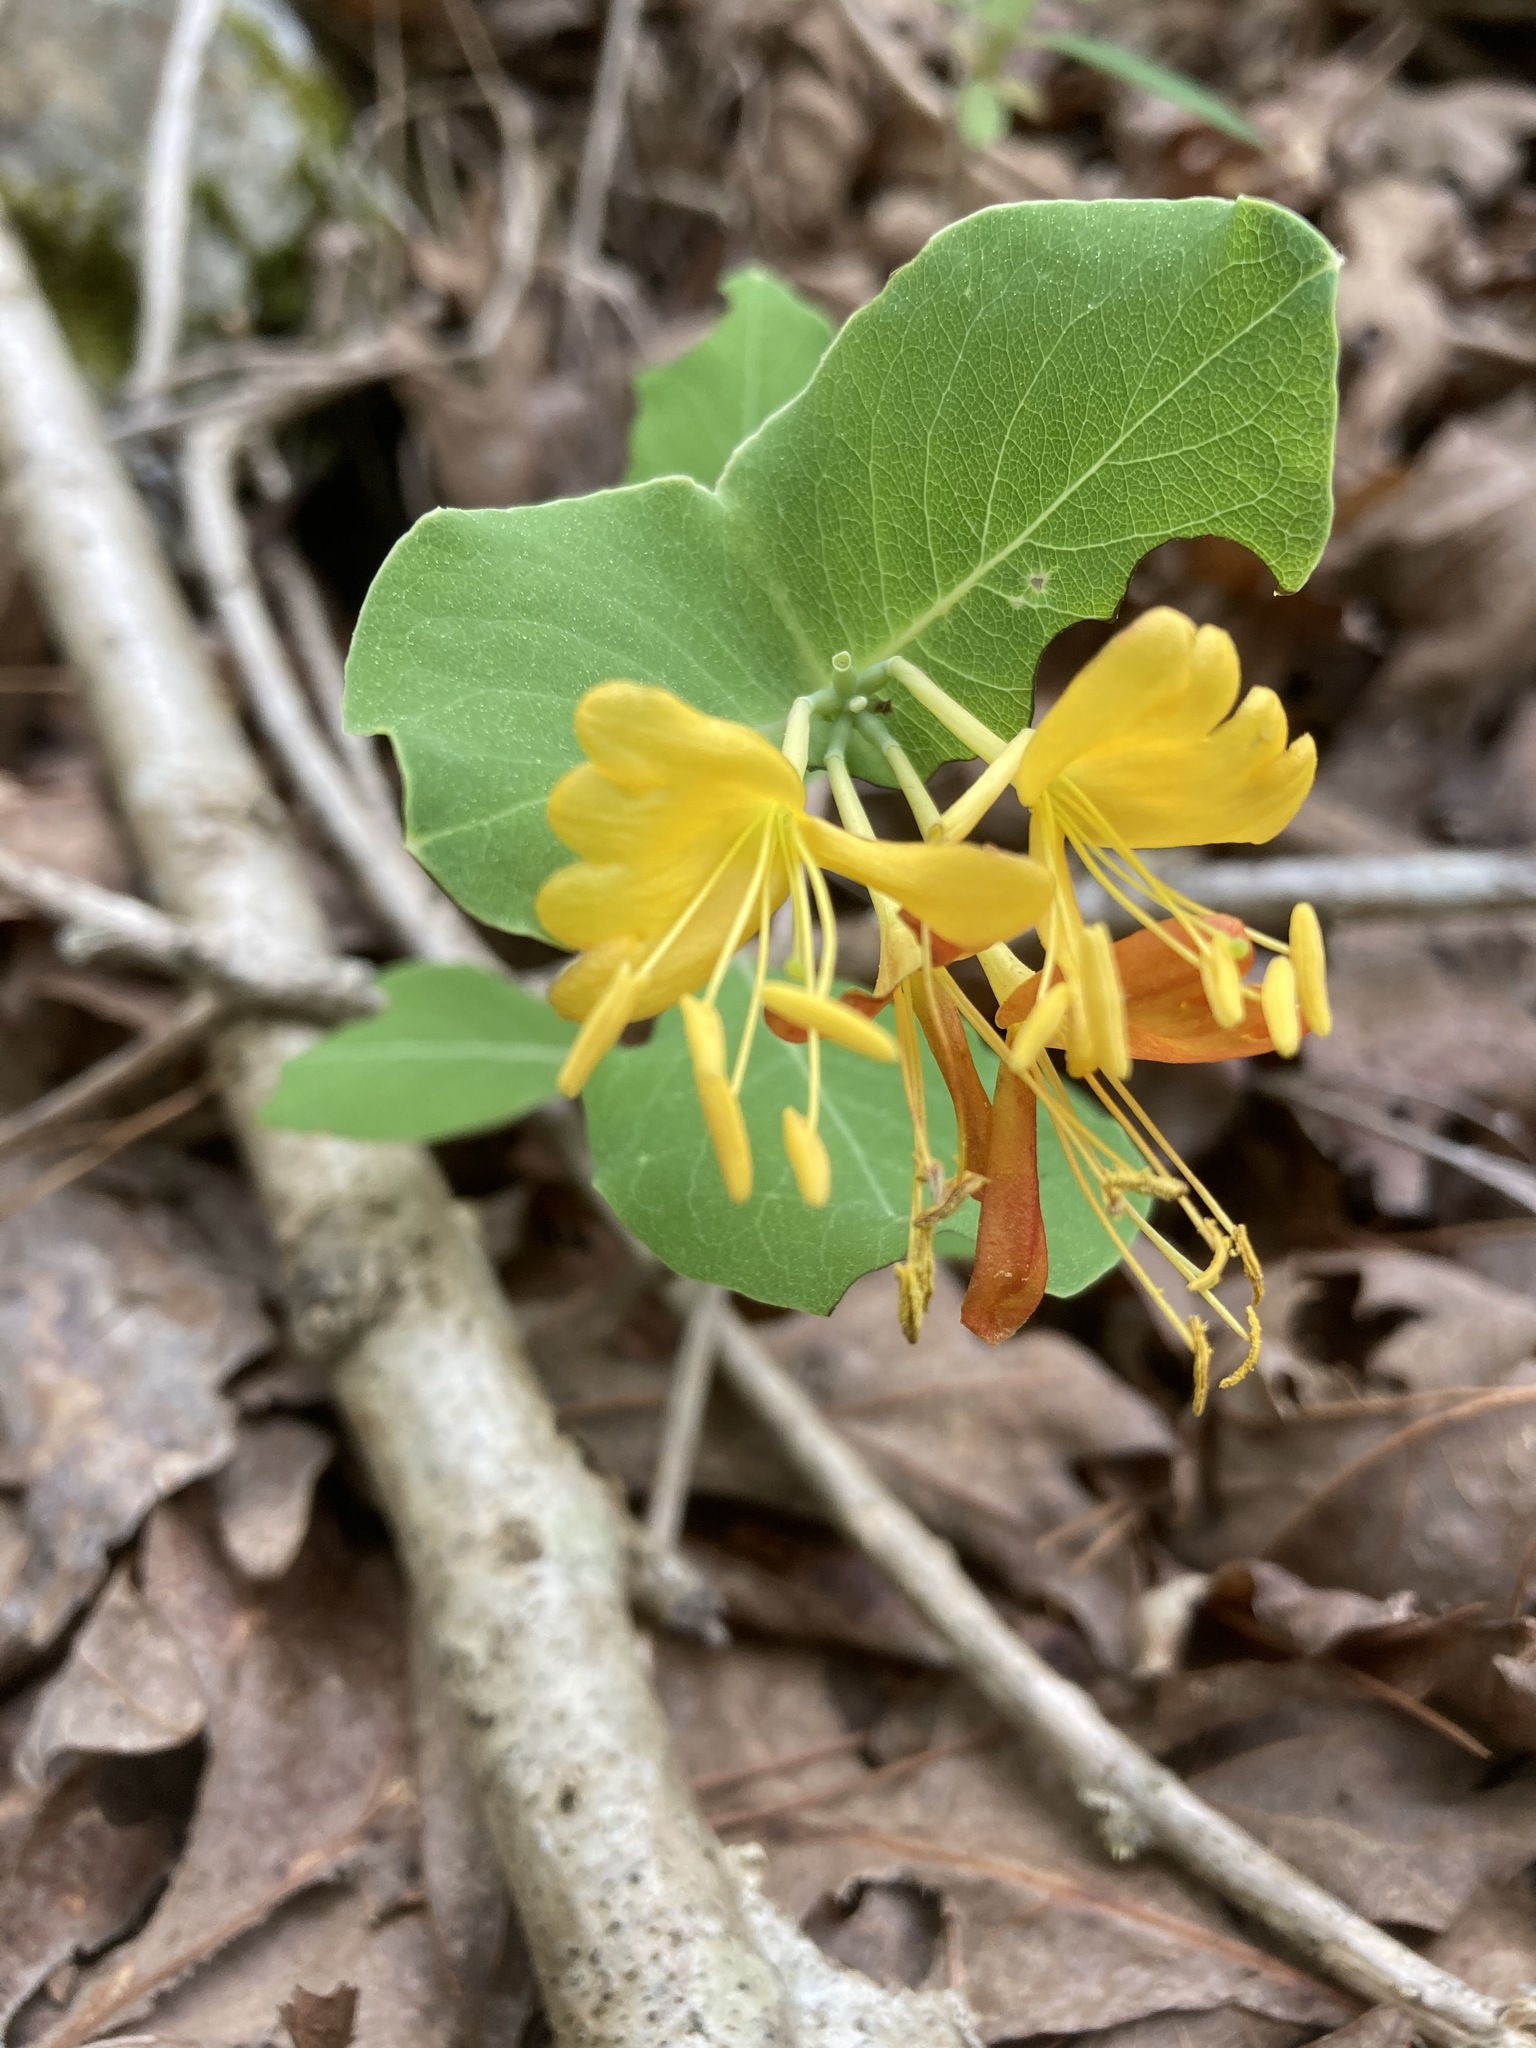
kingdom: Plantae
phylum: Tracheophyta
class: Magnoliopsida
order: Dipsacales
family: Caprifoliaceae
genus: Lonicera
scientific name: Lonicera flava
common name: Yellow honeysuckle
